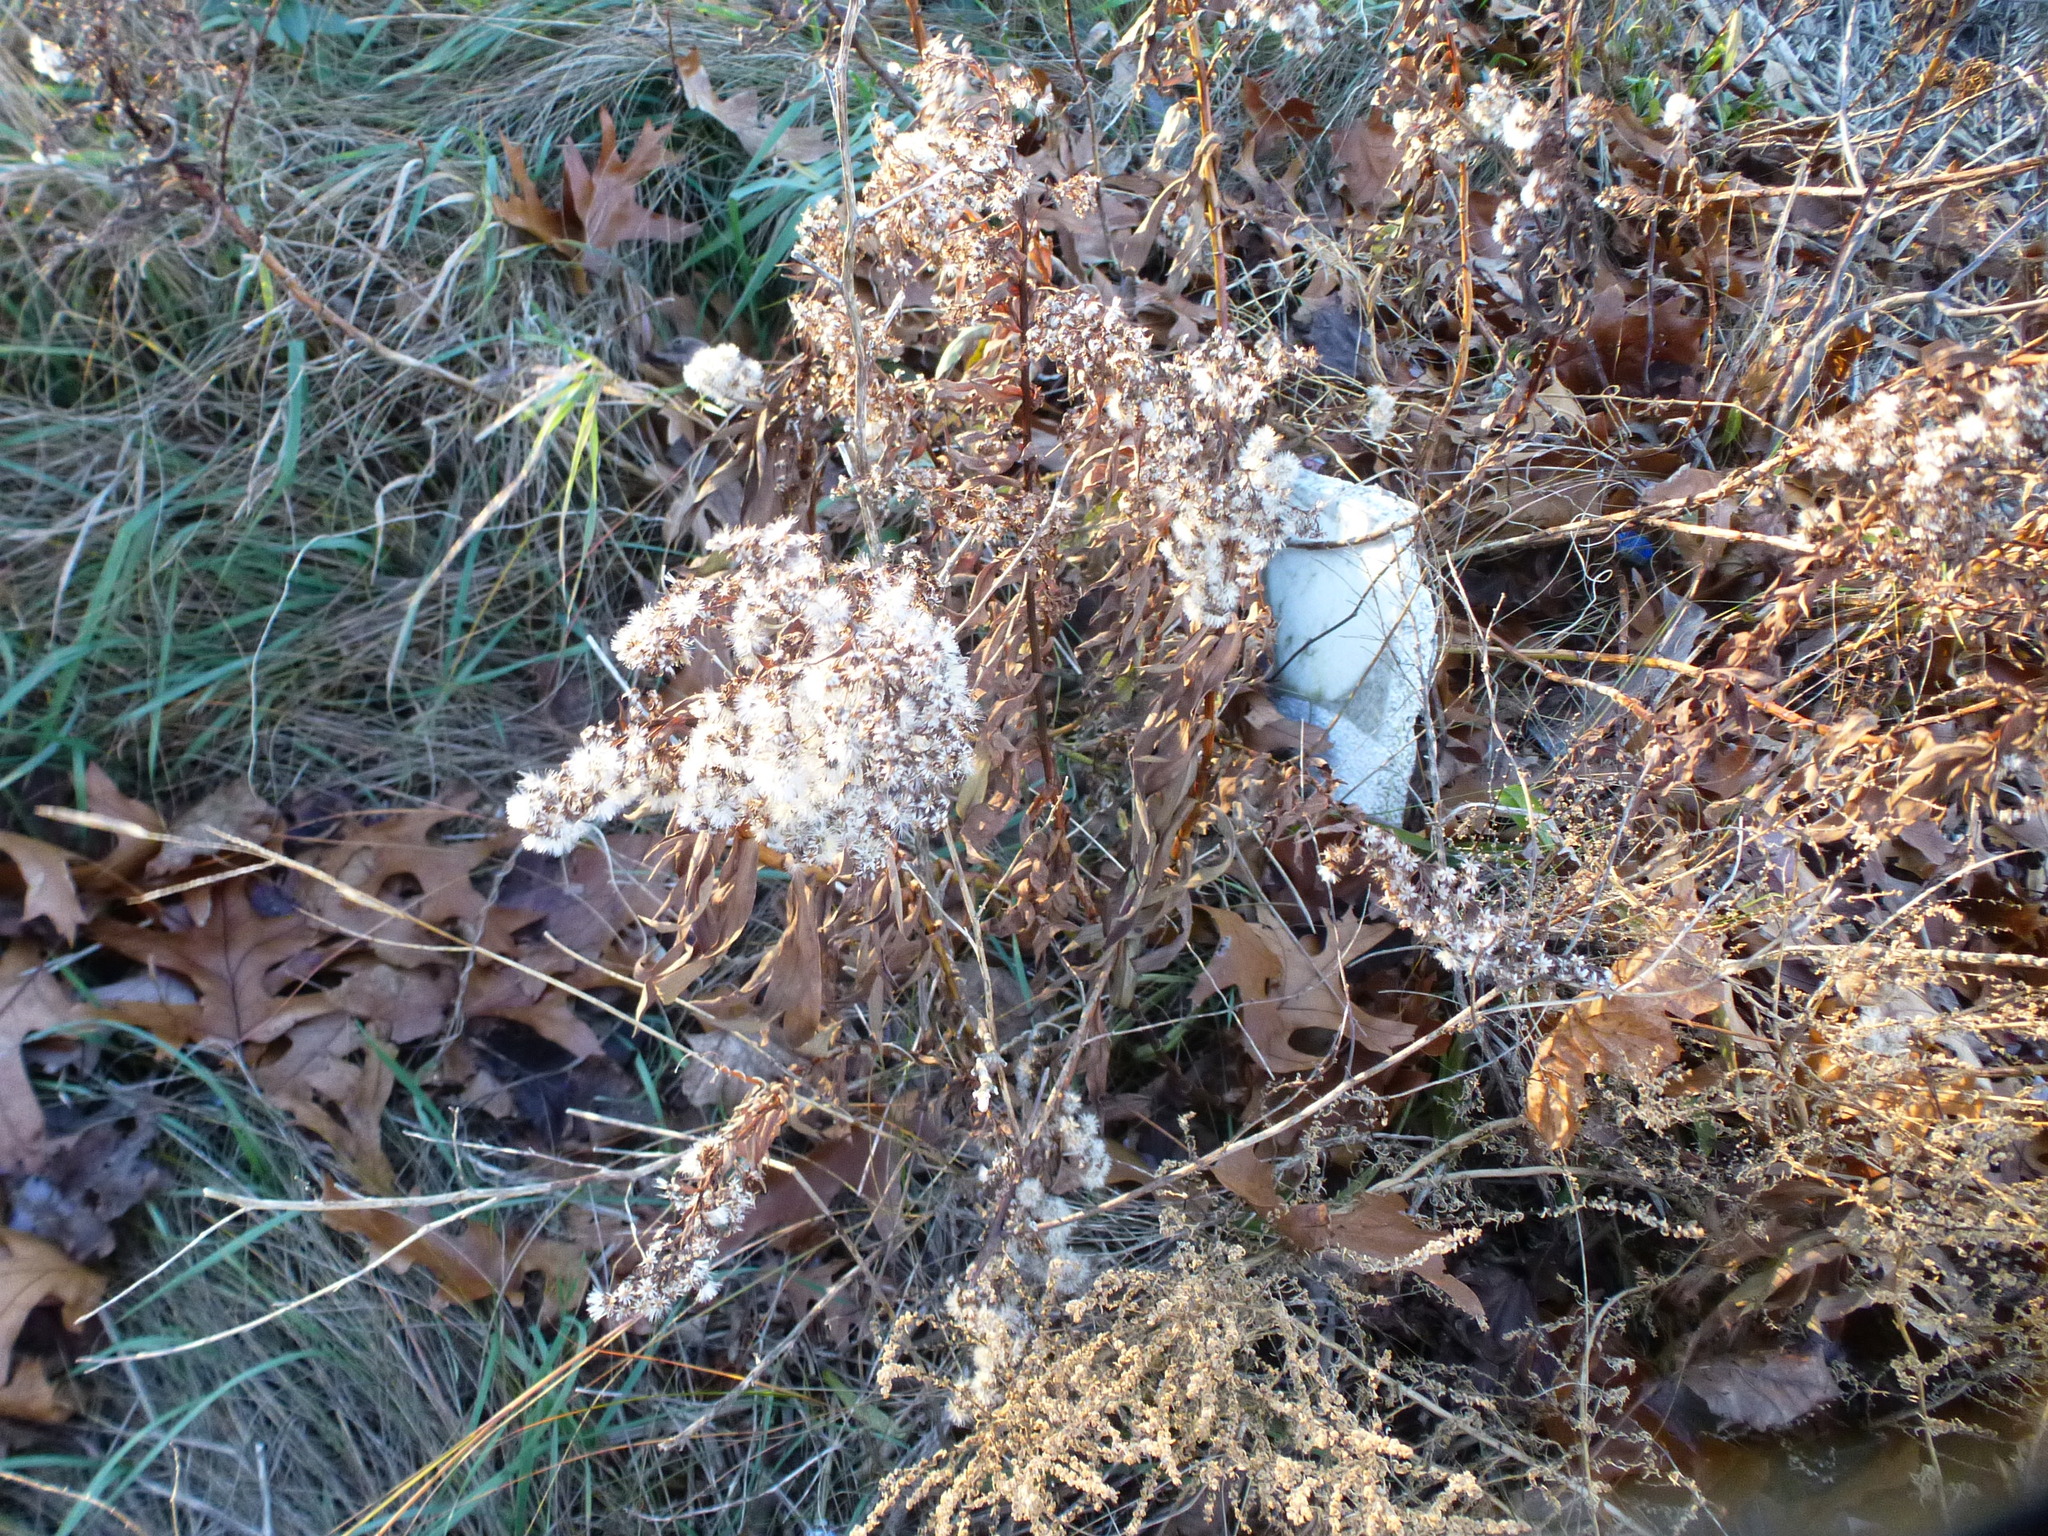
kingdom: Plantae
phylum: Tracheophyta
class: Magnoliopsida
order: Asterales
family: Asteraceae
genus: Solidago
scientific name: Solidago sempervirens
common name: Salt-marsh goldenrod
